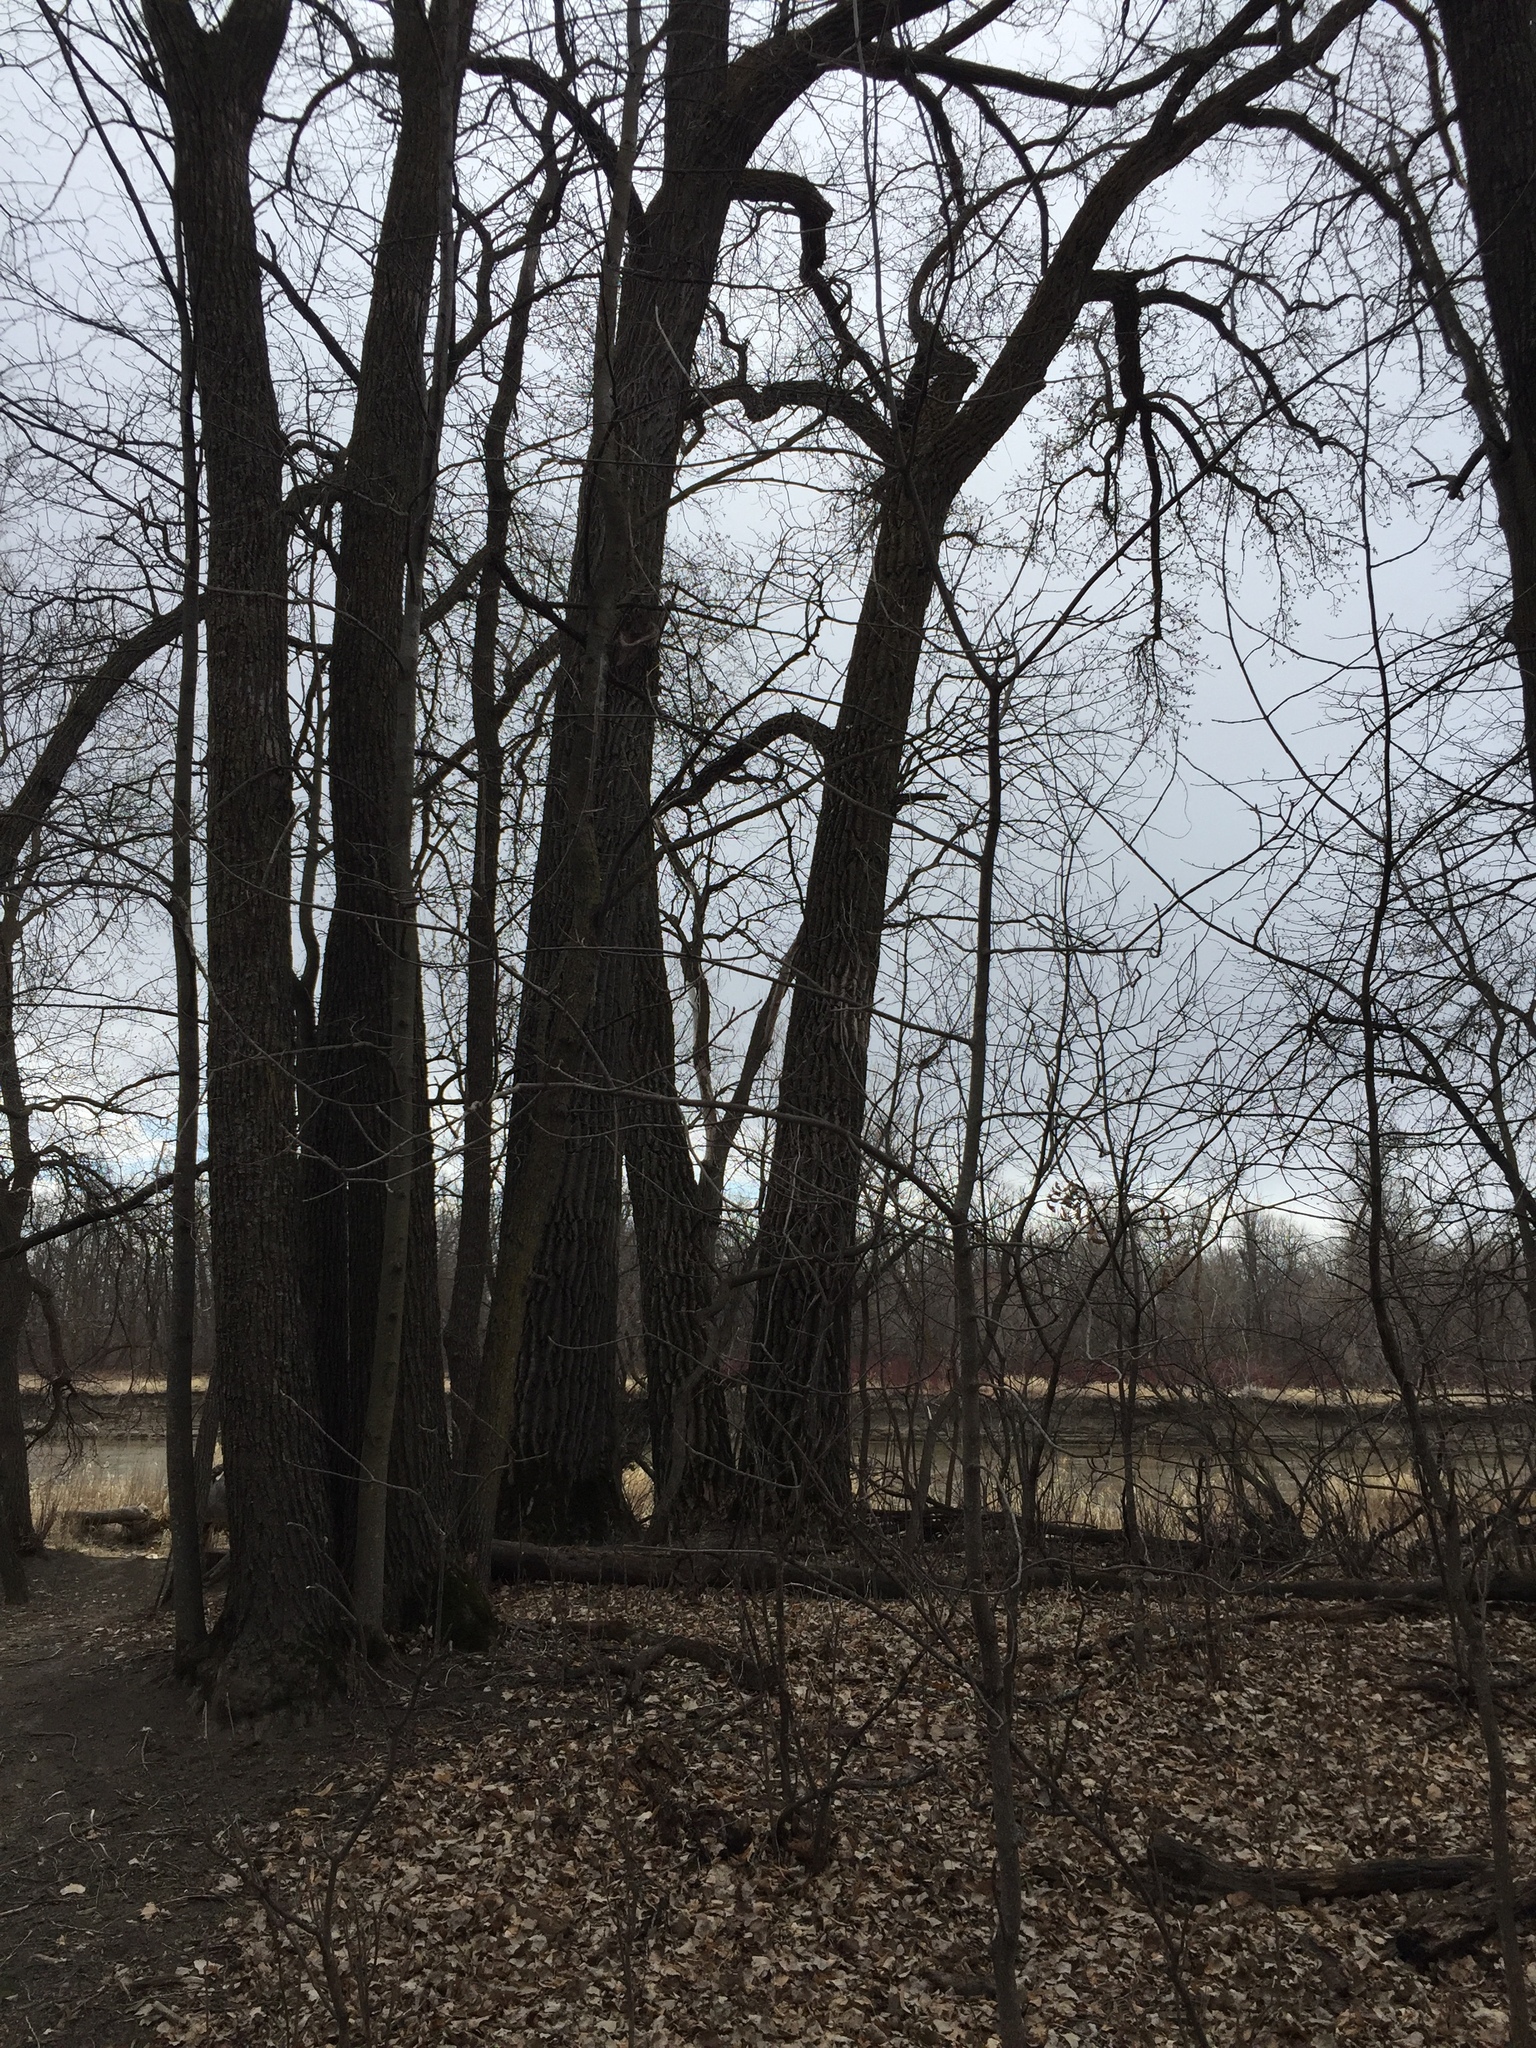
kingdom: Plantae
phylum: Tracheophyta
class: Magnoliopsida
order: Malpighiales
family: Salicaceae
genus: Populus
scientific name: Populus deltoides
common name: Eastern cottonwood
